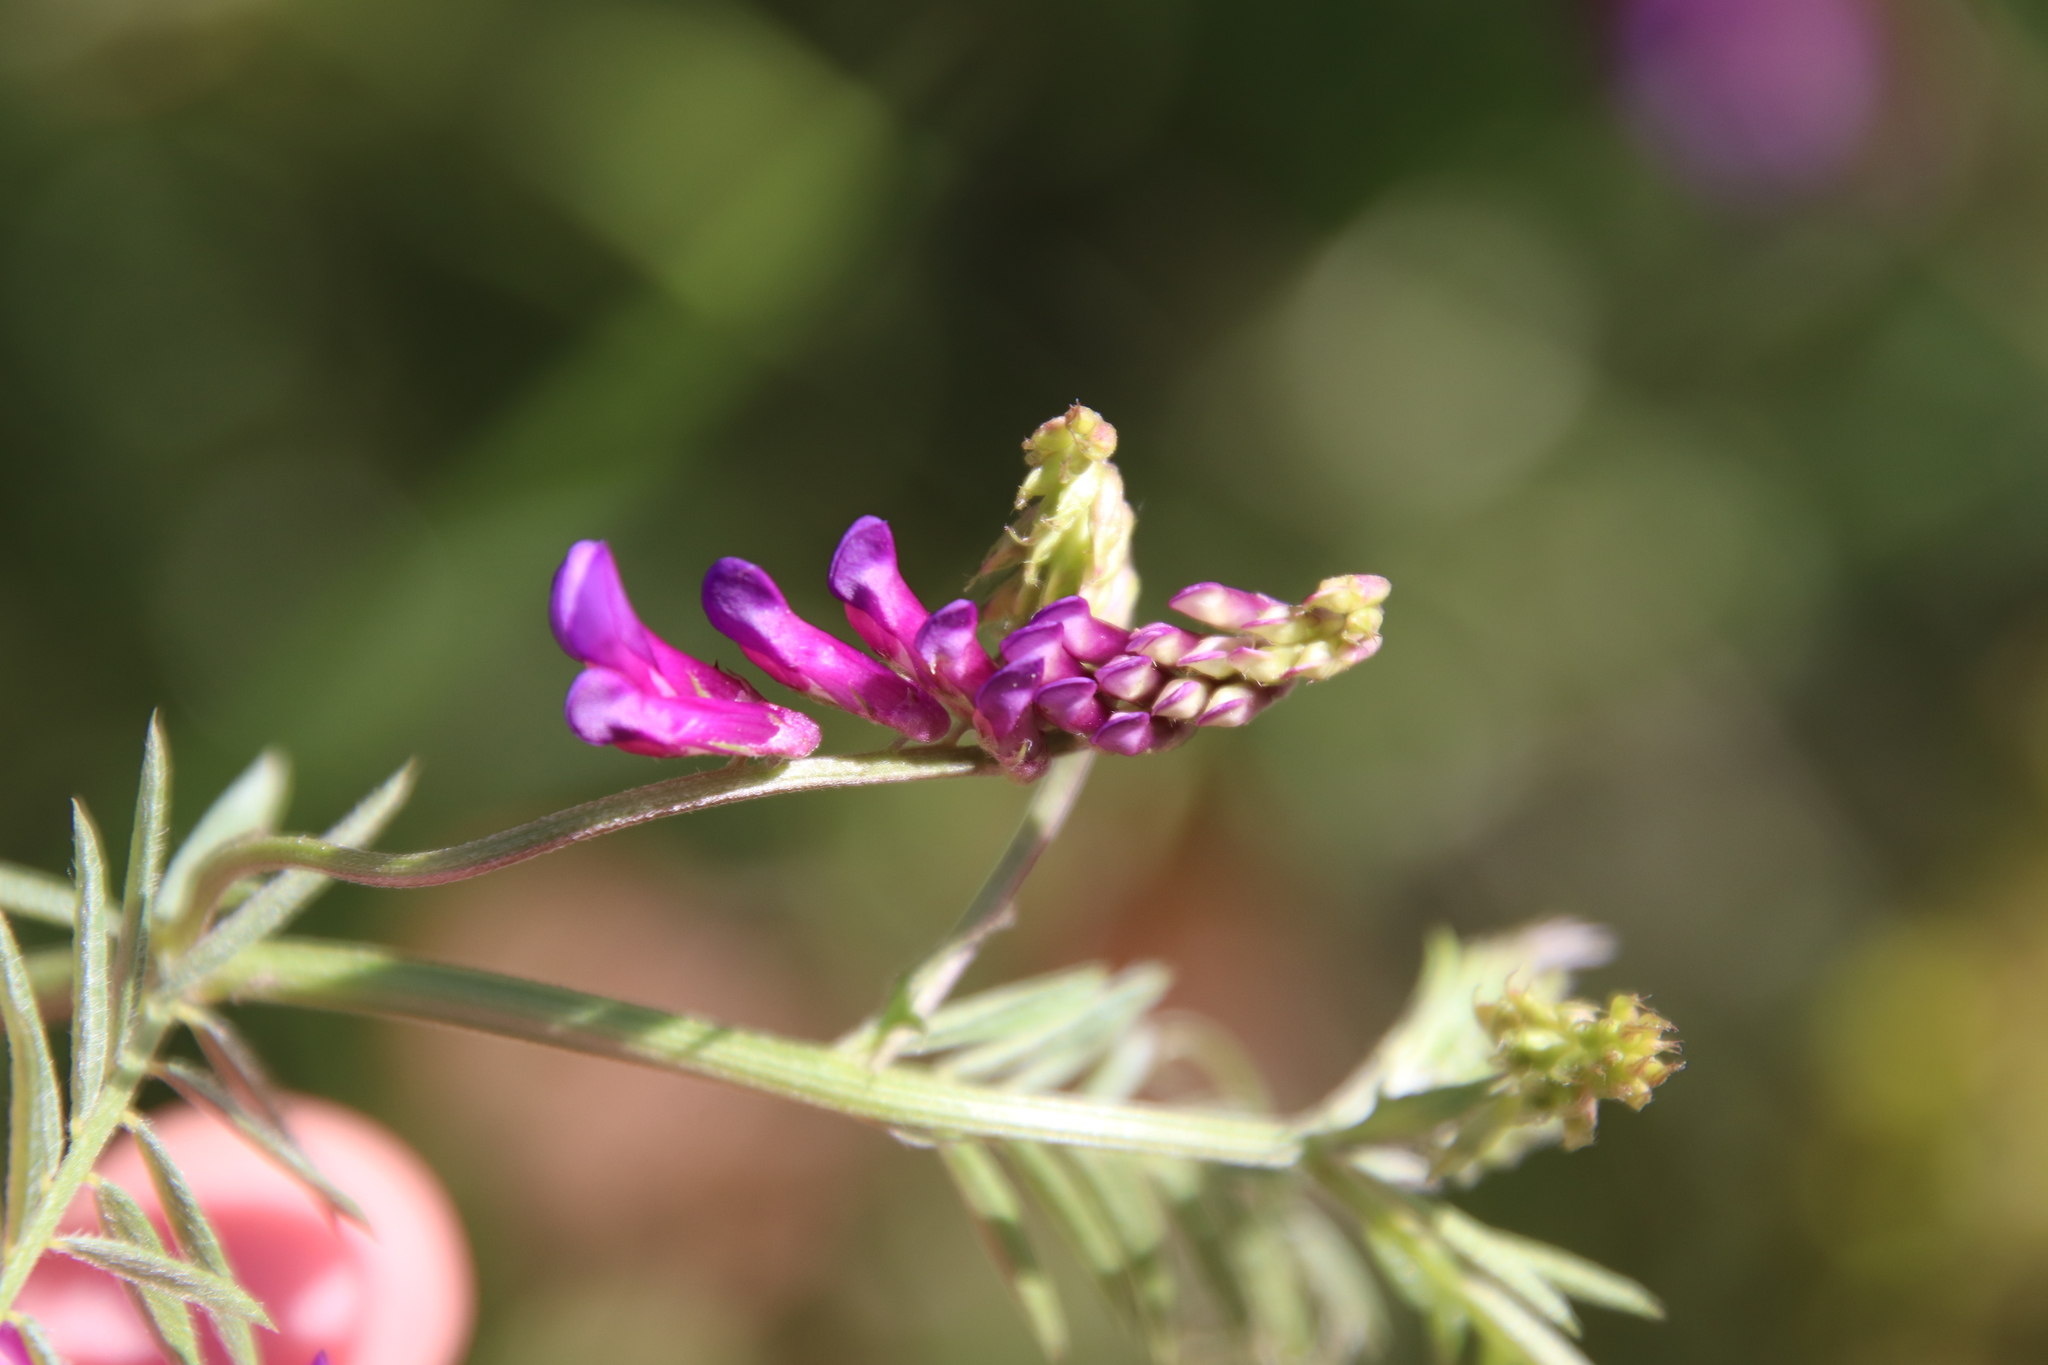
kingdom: Plantae
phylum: Tracheophyta
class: Magnoliopsida
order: Fabales
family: Fabaceae
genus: Vicia
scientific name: Vicia villosa
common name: Fodder vetch
